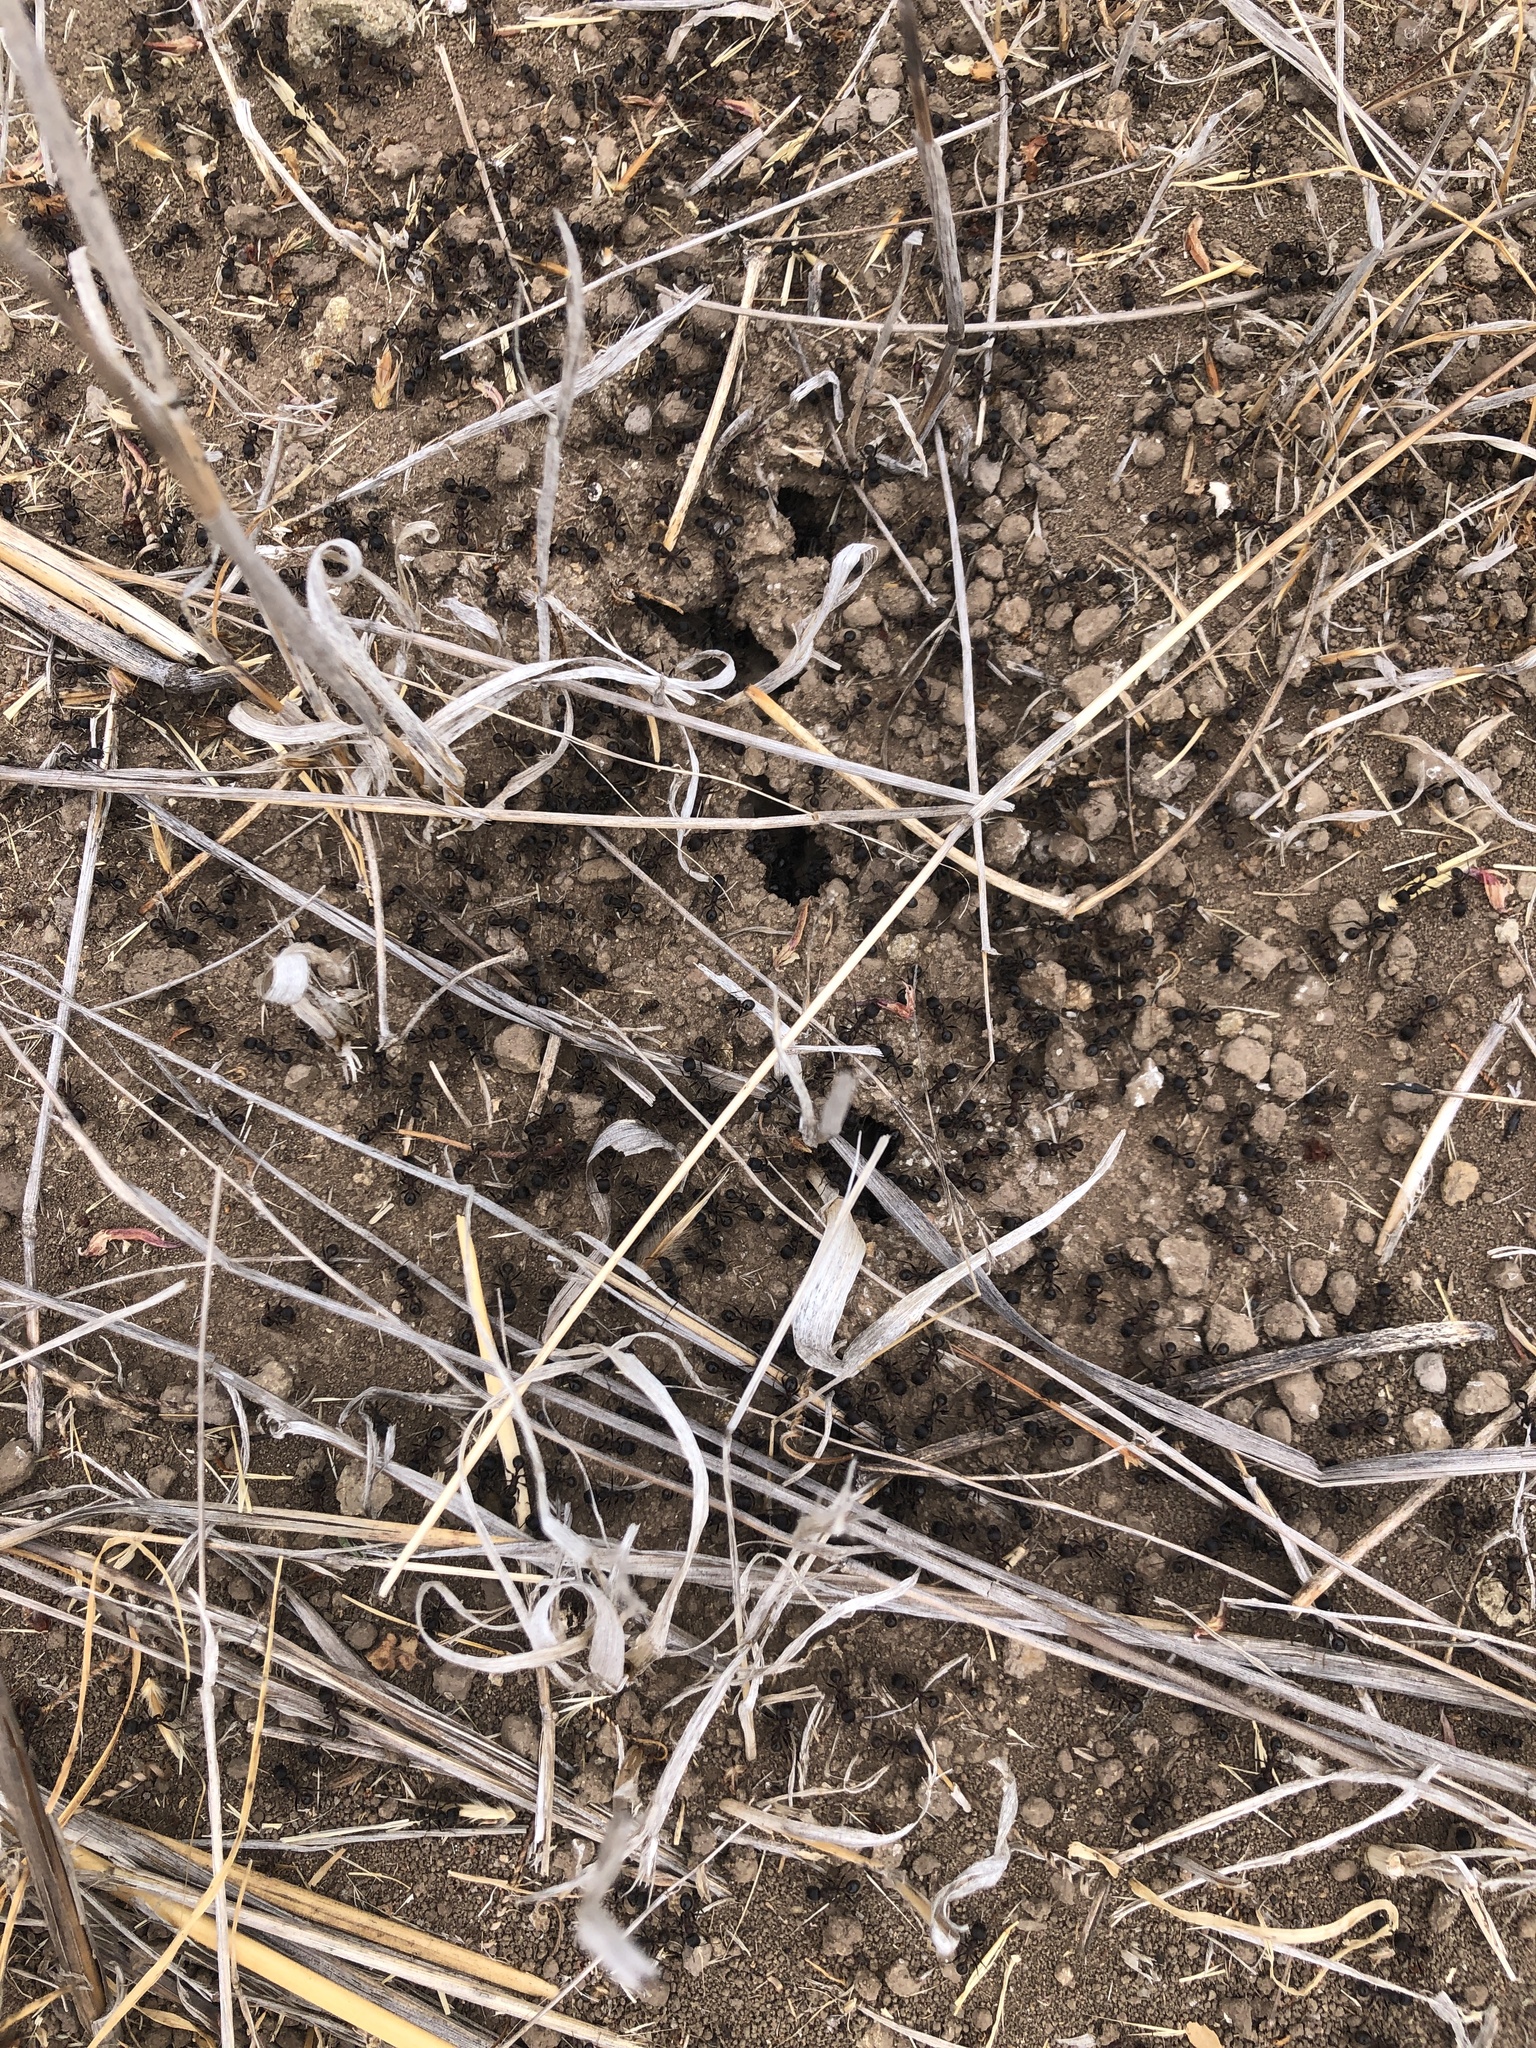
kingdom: Animalia
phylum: Arthropoda
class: Insecta
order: Hymenoptera
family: Formicidae
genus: Veromessor
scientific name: Veromessor andrei
